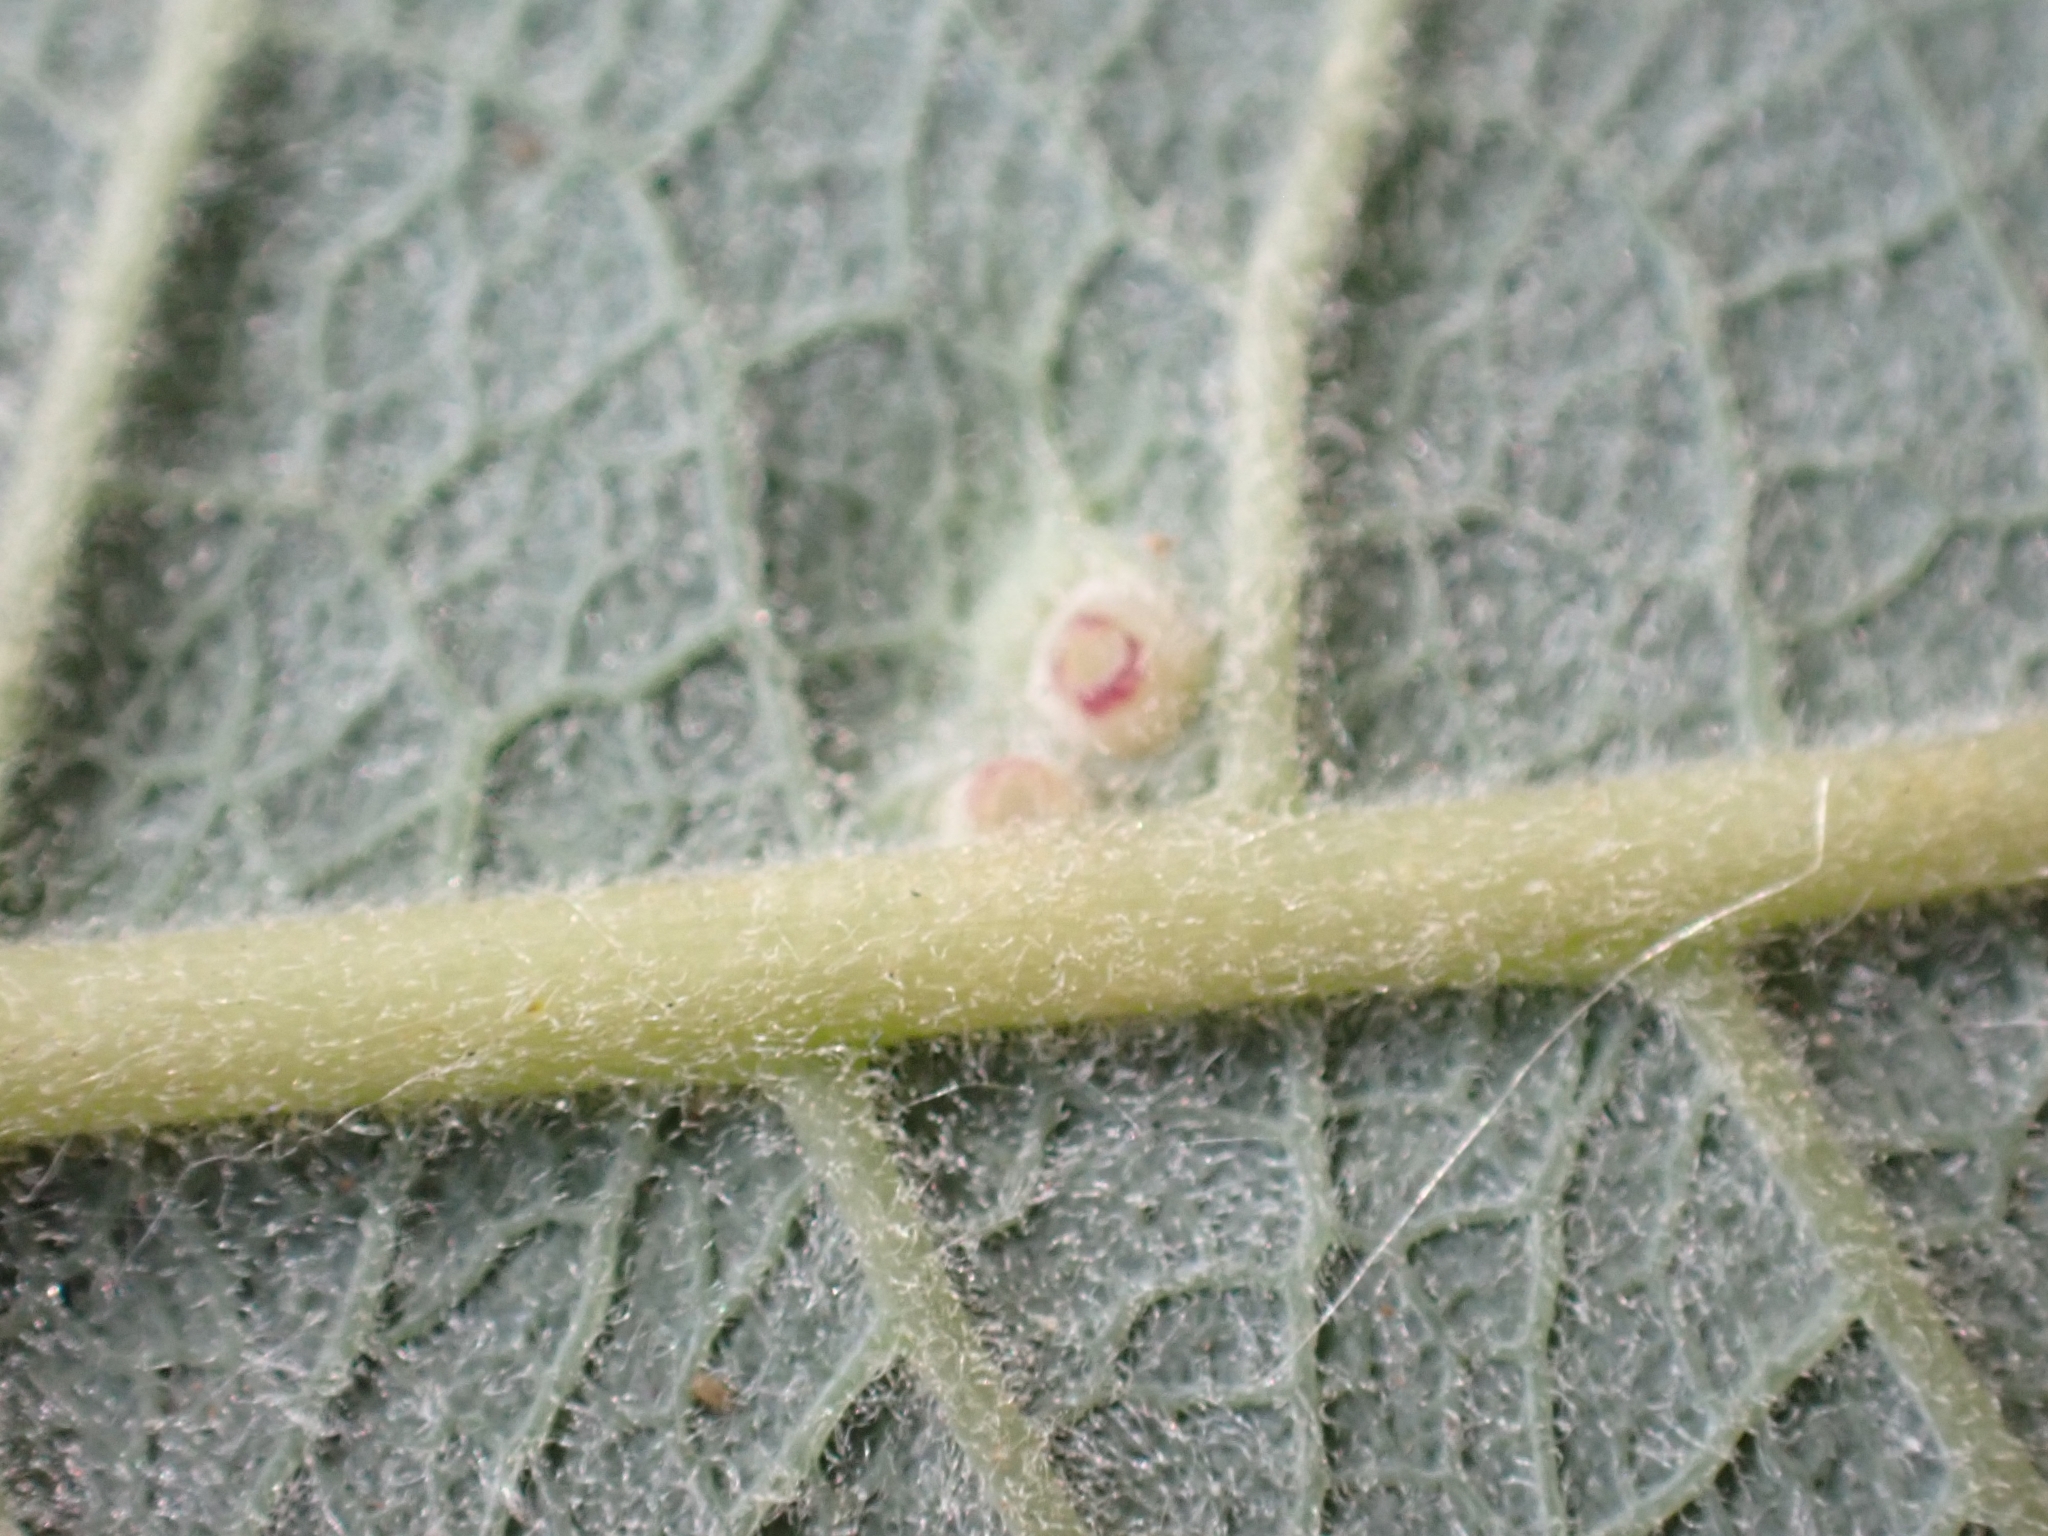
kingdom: Animalia
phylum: Arthropoda
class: Insecta
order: Diptera
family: Cecidomyiidae
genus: Iteomyia
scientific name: Iteomyia capreae
